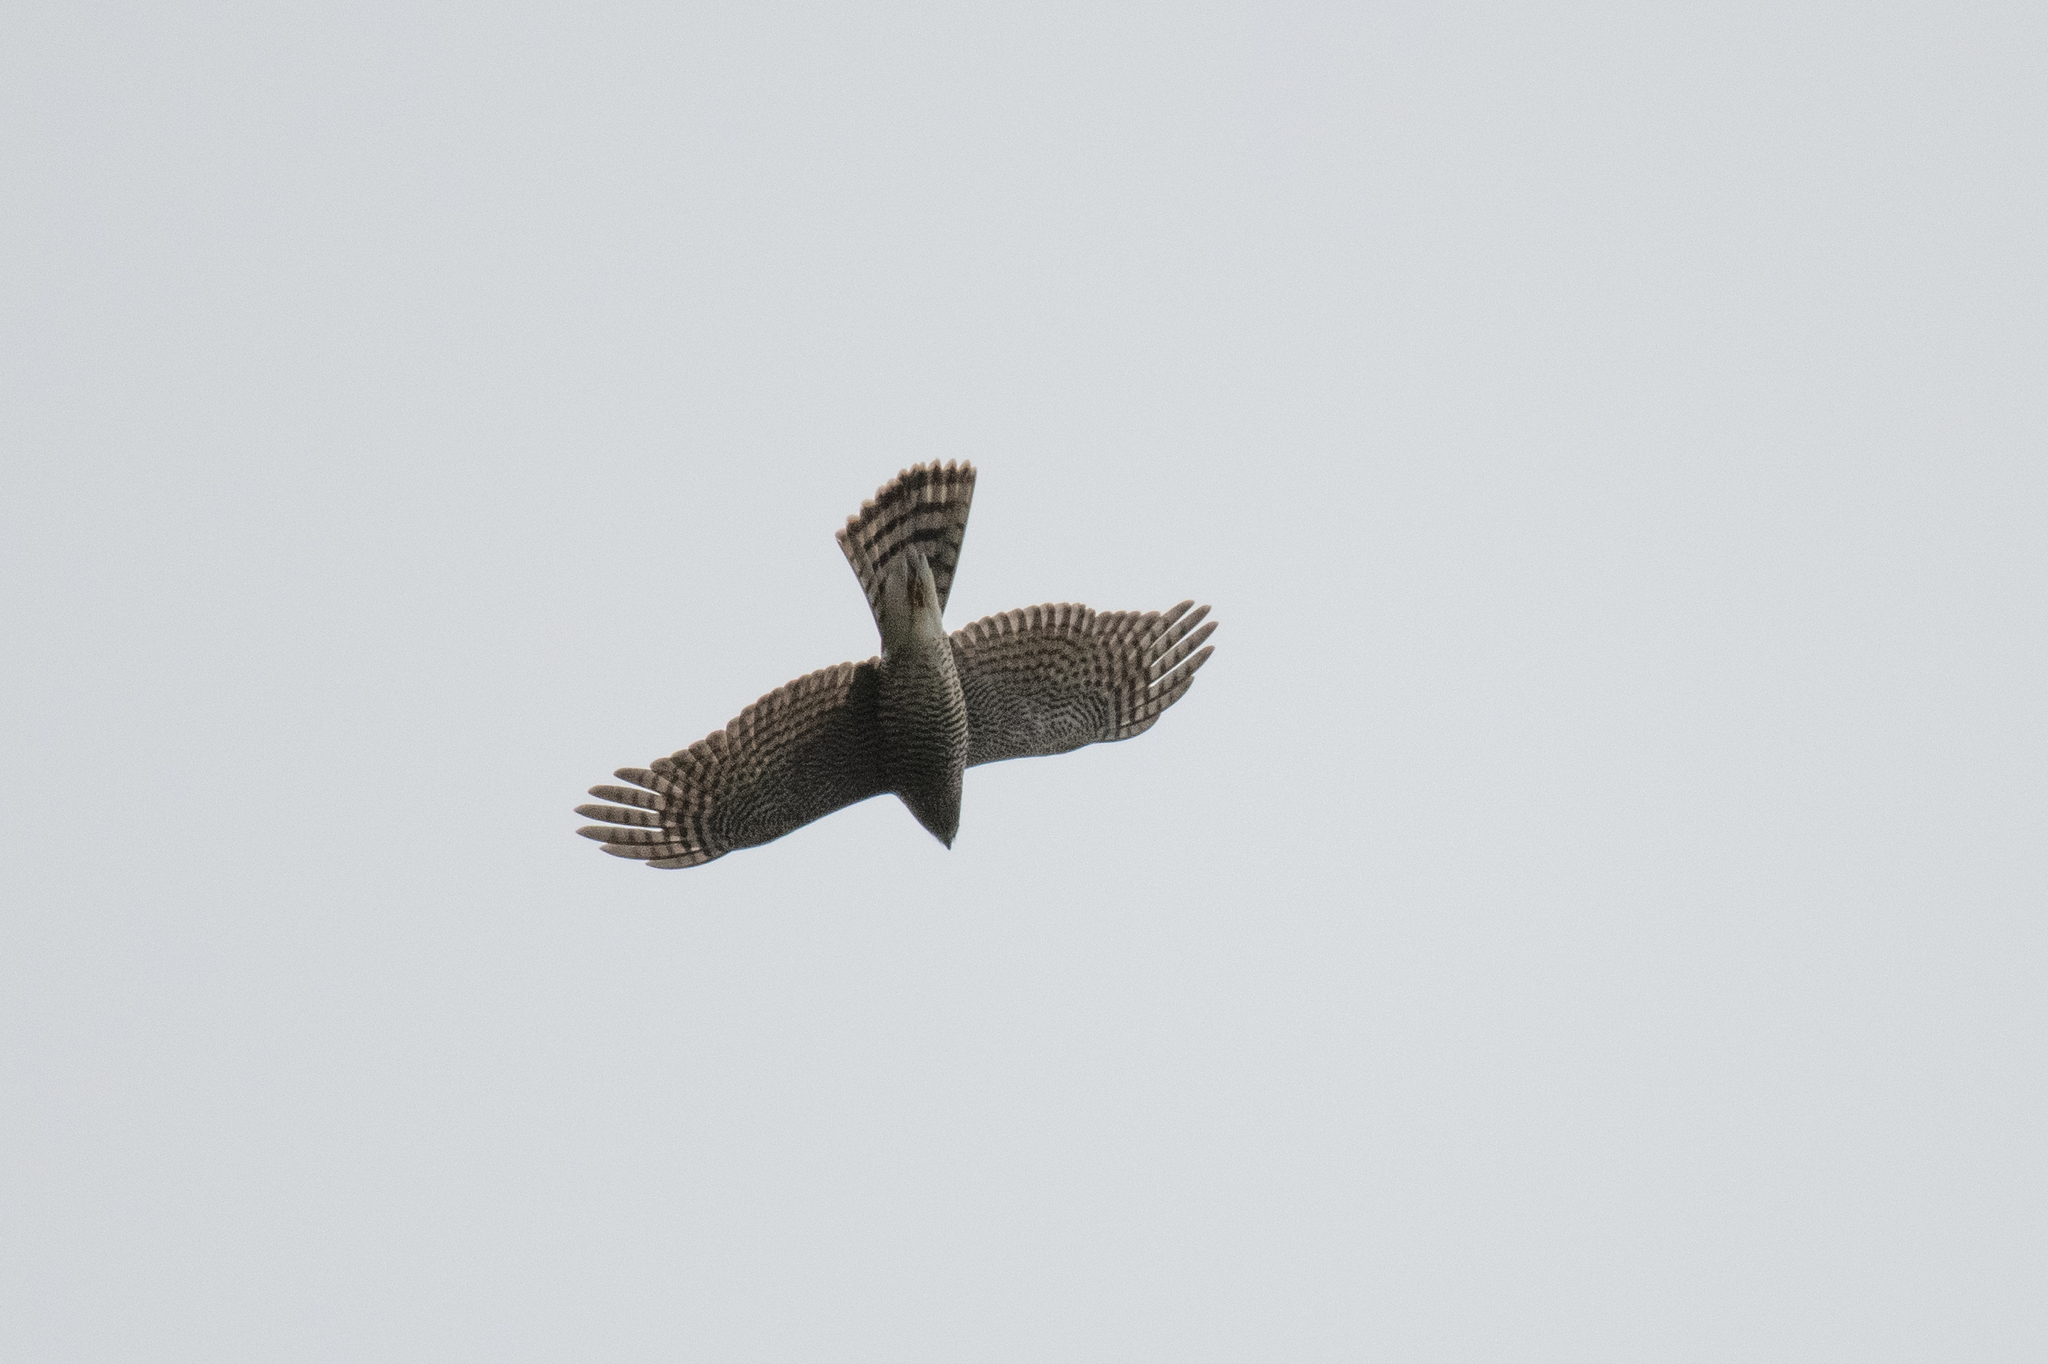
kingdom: Animalia
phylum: Chordata
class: Aves
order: Accipitriformes
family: Accipitridae
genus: Accipiter
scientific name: Accipiter nisus
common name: Eurasian sparrowhawk
